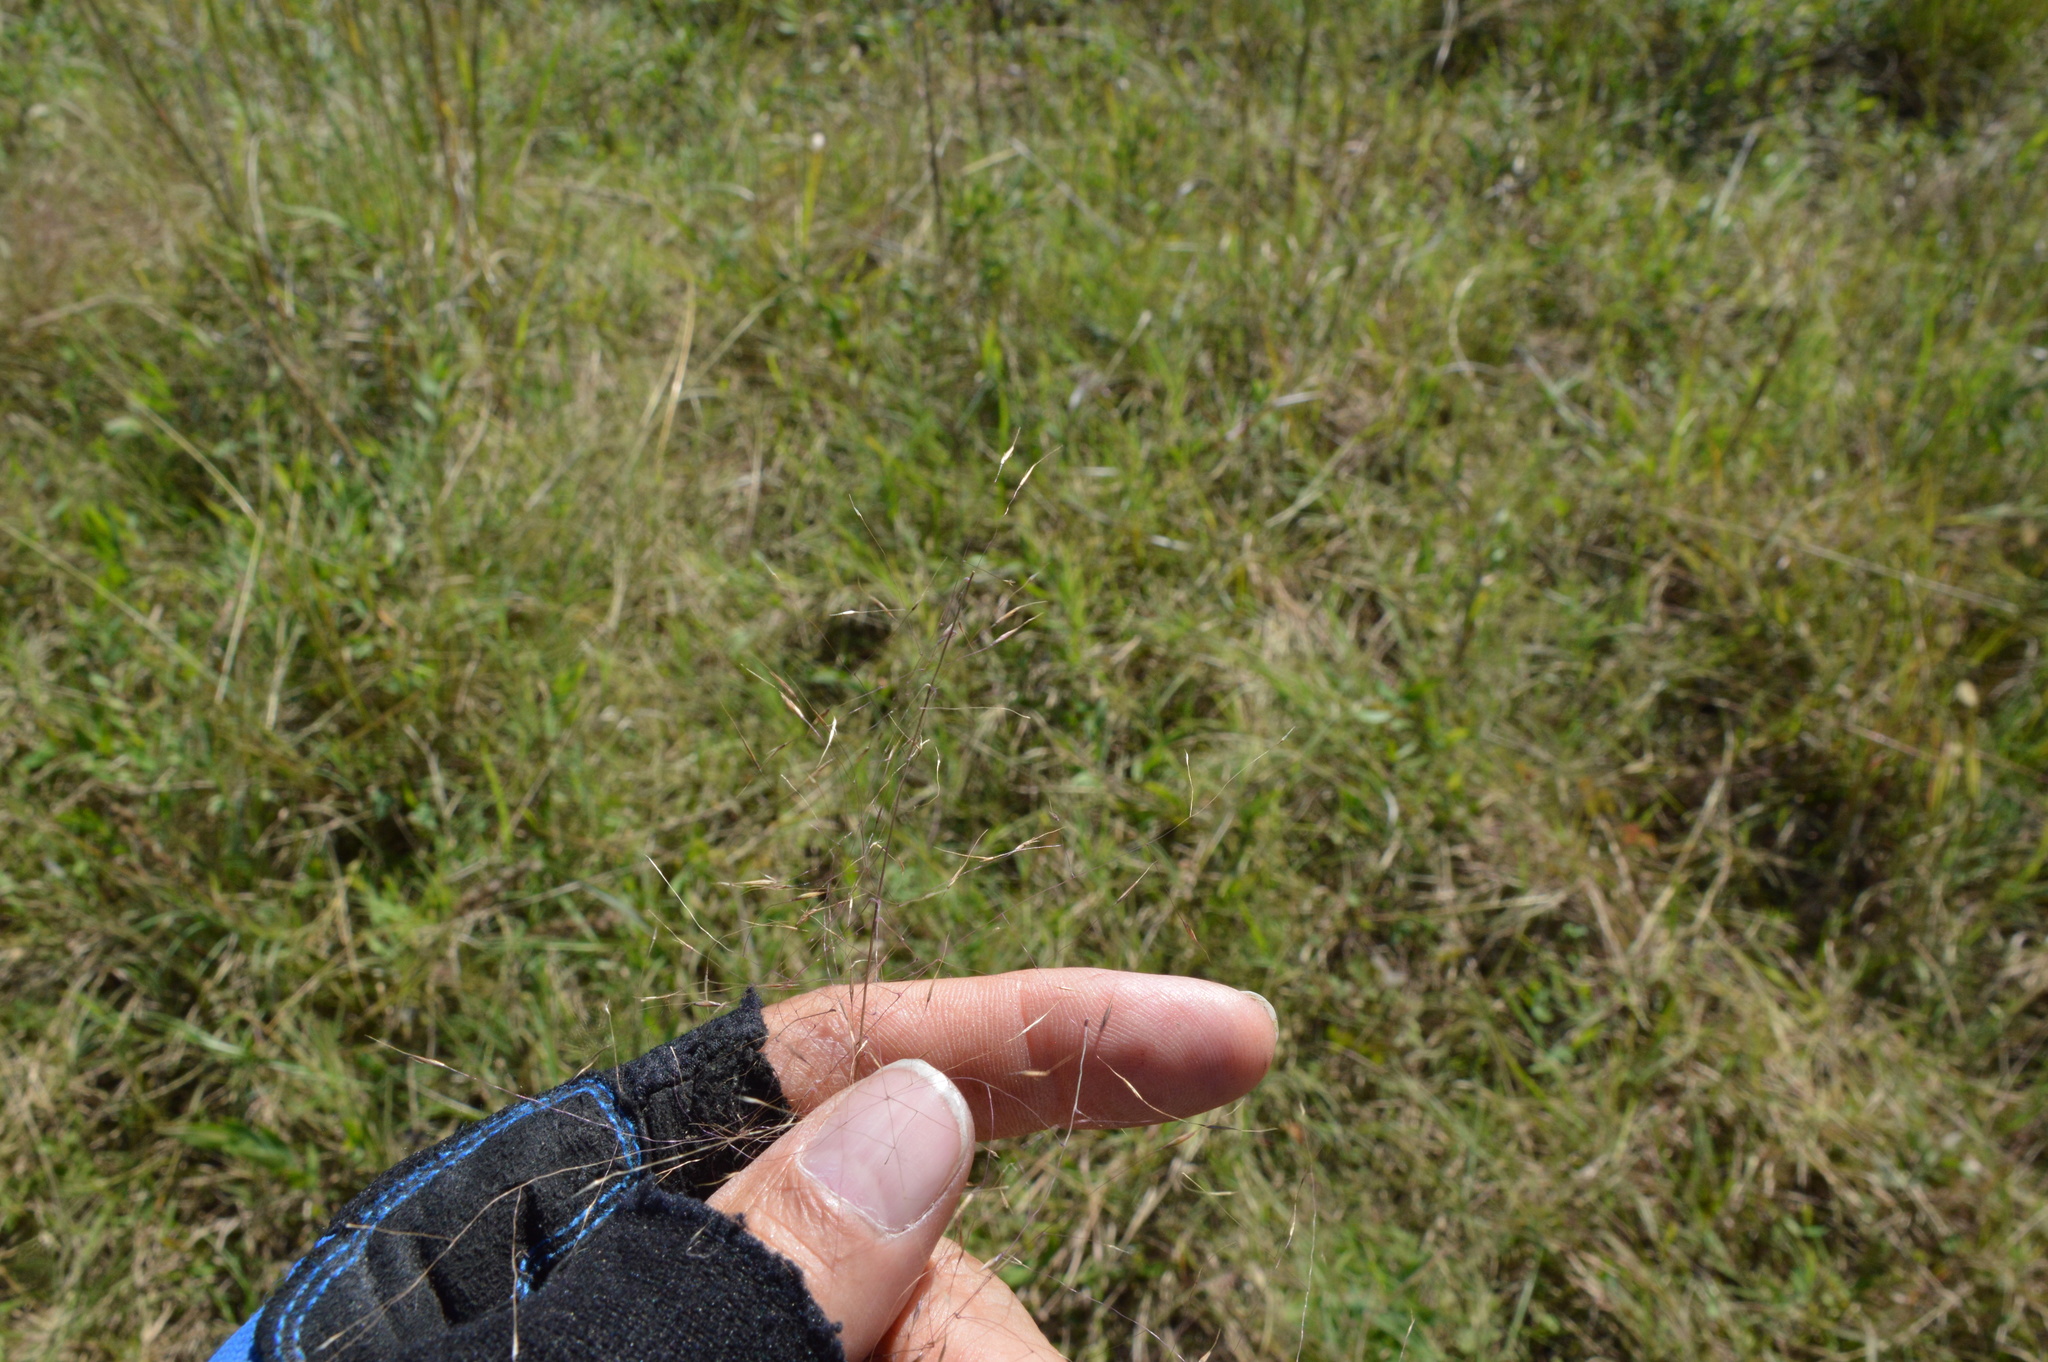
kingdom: Plantae
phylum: Tracheophyta
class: Liliopsida
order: Poales
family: Poaceae
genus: Muhlenbergia
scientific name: Muhlenbergia capillaris
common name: Purple grass
